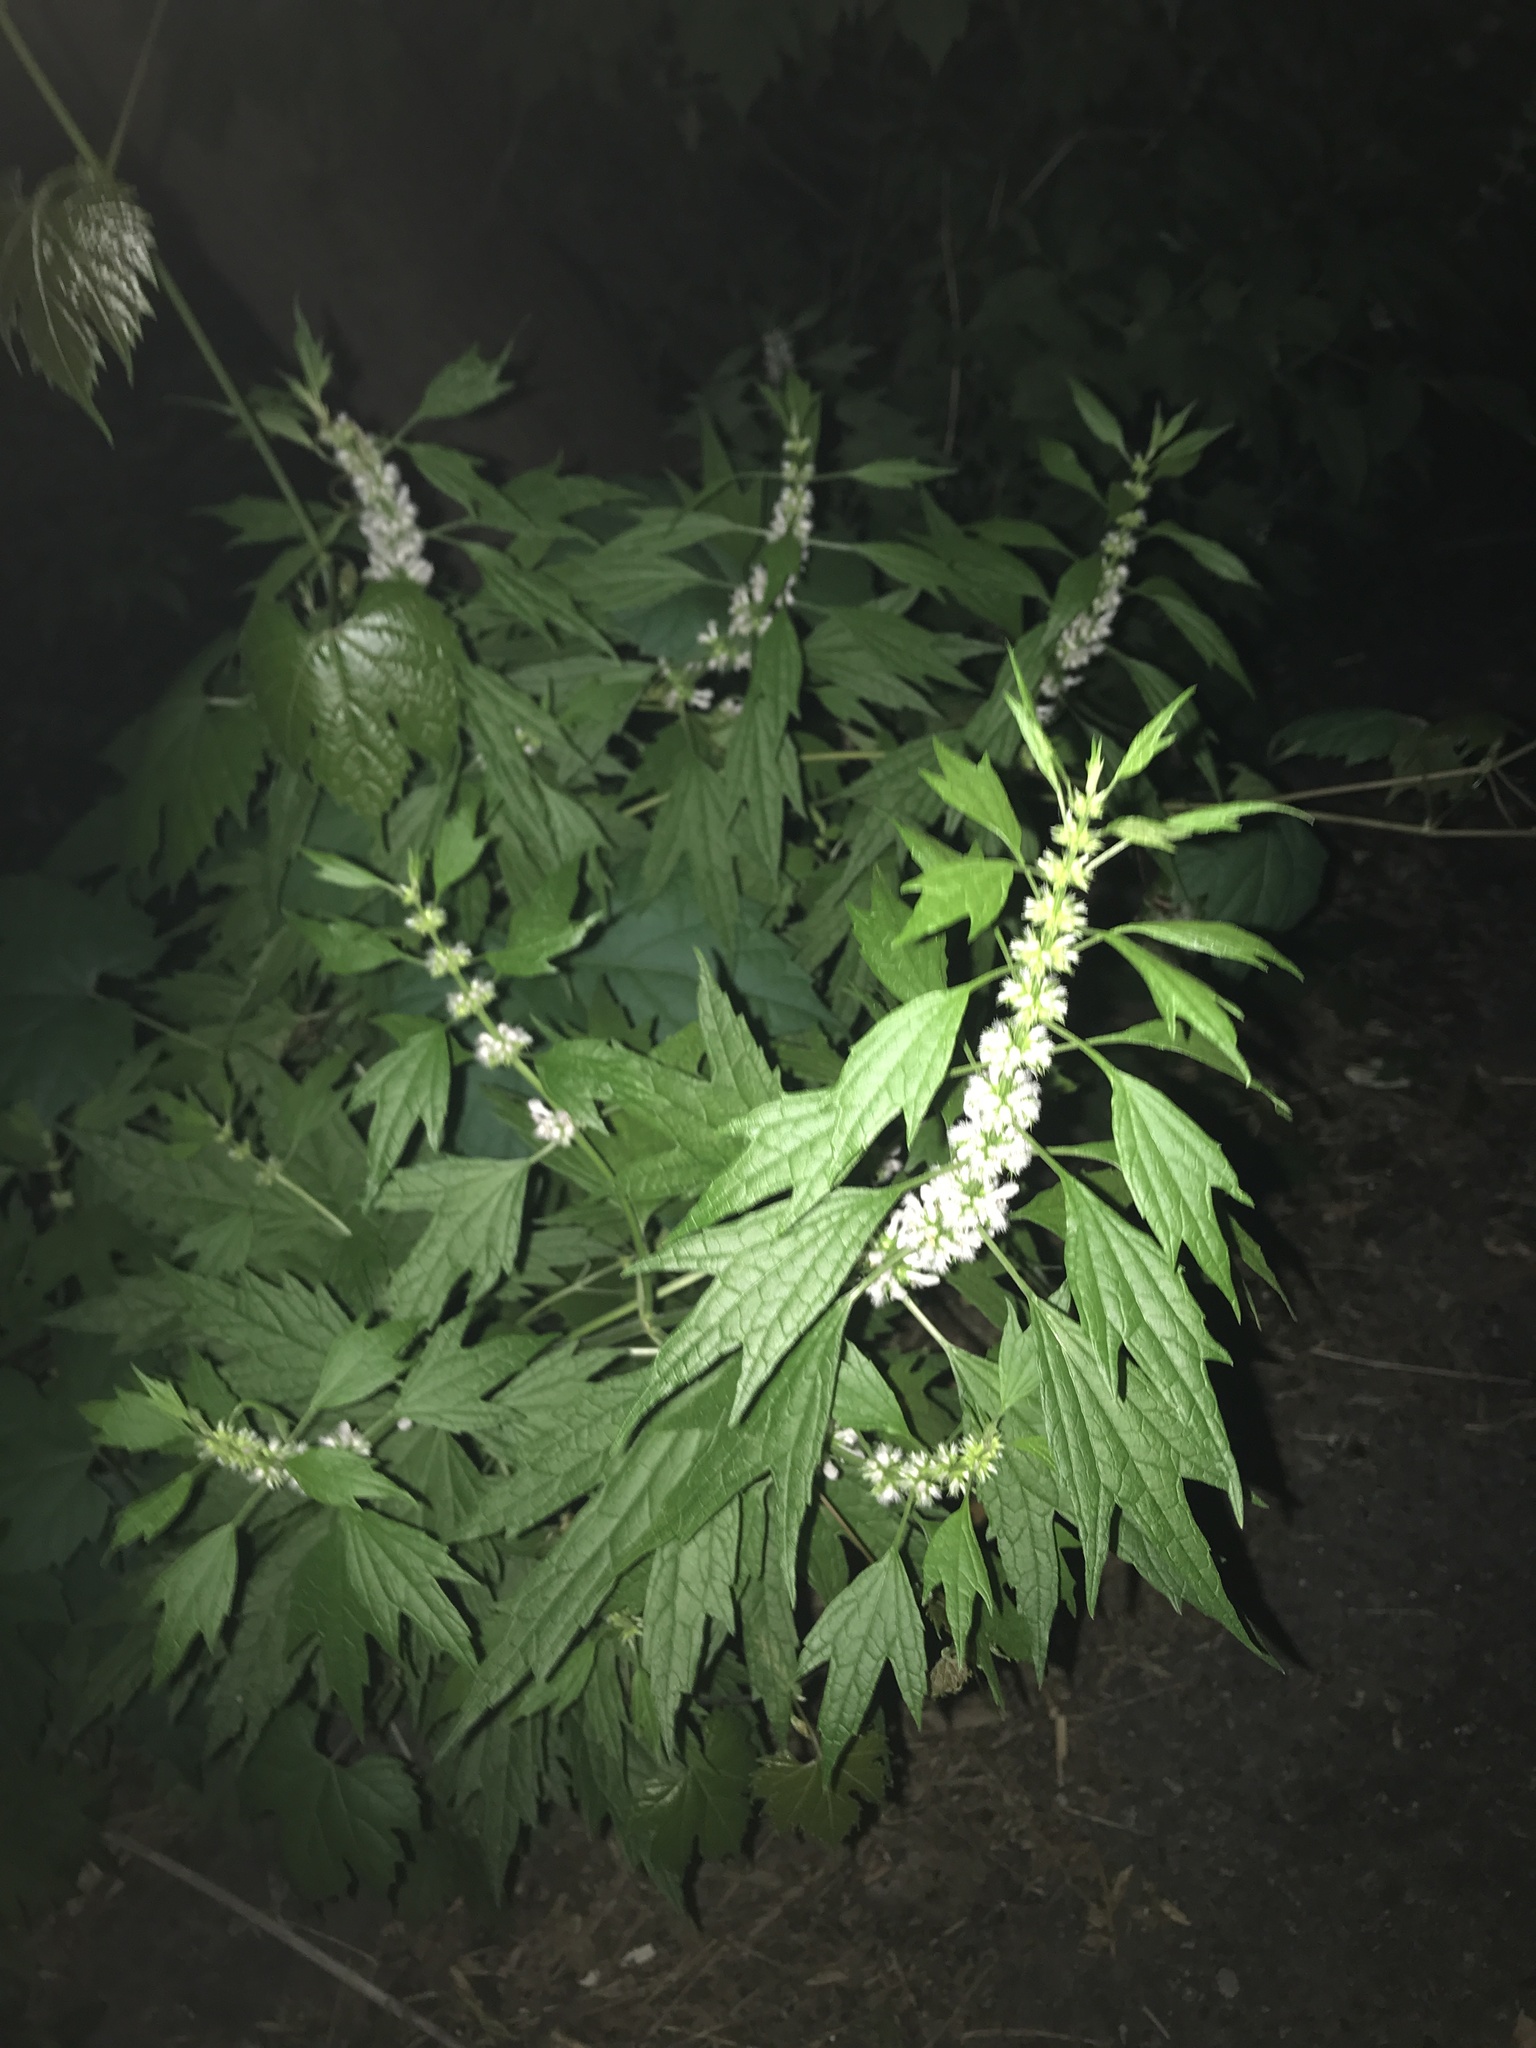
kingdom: Plantae
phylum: Tracheophyta
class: Magnoliopsida
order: Lamiales
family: Lamiaceae
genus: Leonurus
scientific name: Leonurus cardiaca
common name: Motherwort
